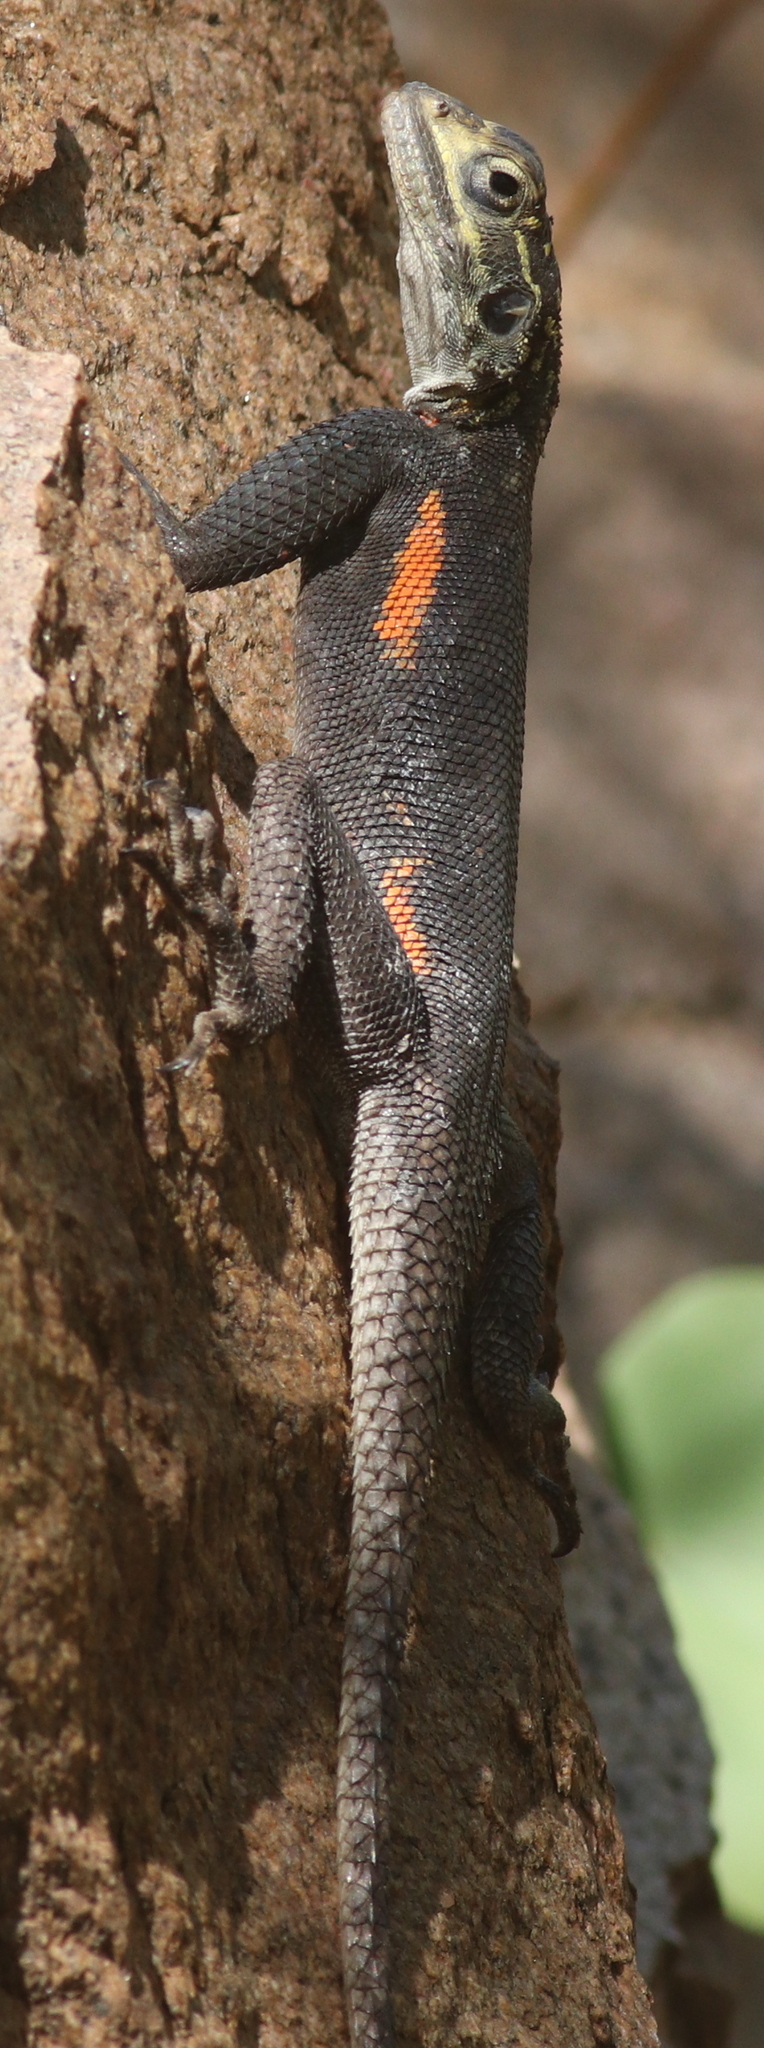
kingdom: Animalia
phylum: Chordata
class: Squamata
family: Agamidae
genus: Agama
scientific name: Agama planiceps
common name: Namib rock agama
